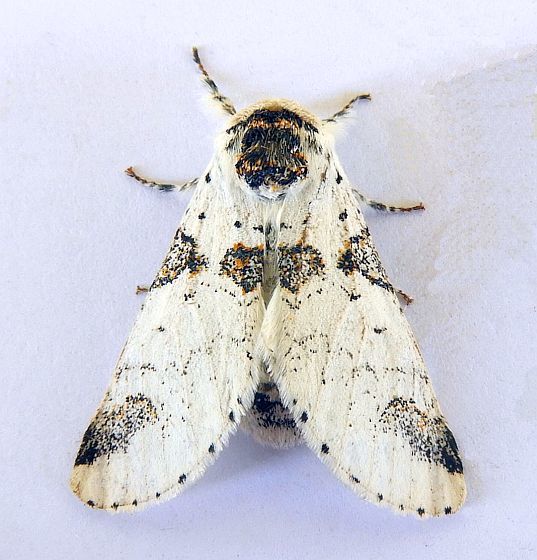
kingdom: Animalia
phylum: Arthropoda
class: Insecta
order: Lepidoptera
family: Notodontidae
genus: Furcula
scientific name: Furcula scolopendrina
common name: Zigzag furcula moth
